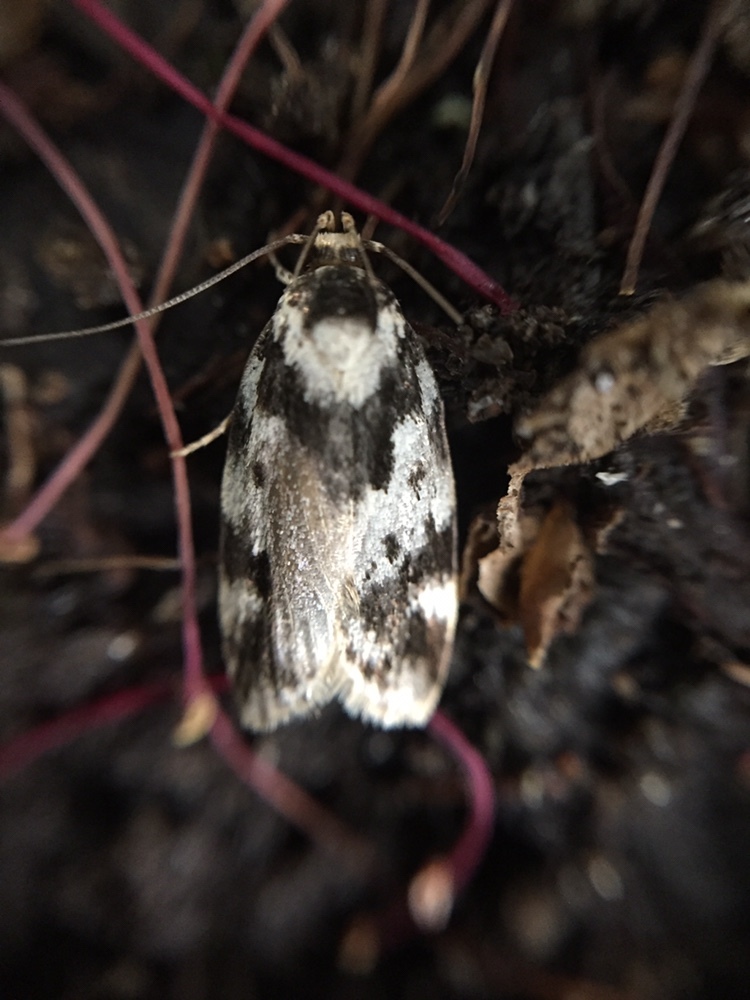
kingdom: Animalia
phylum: Arthropoda
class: Insecta
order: Lepidoptera
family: Oecophoridae
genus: Barea
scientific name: Barea confusella
